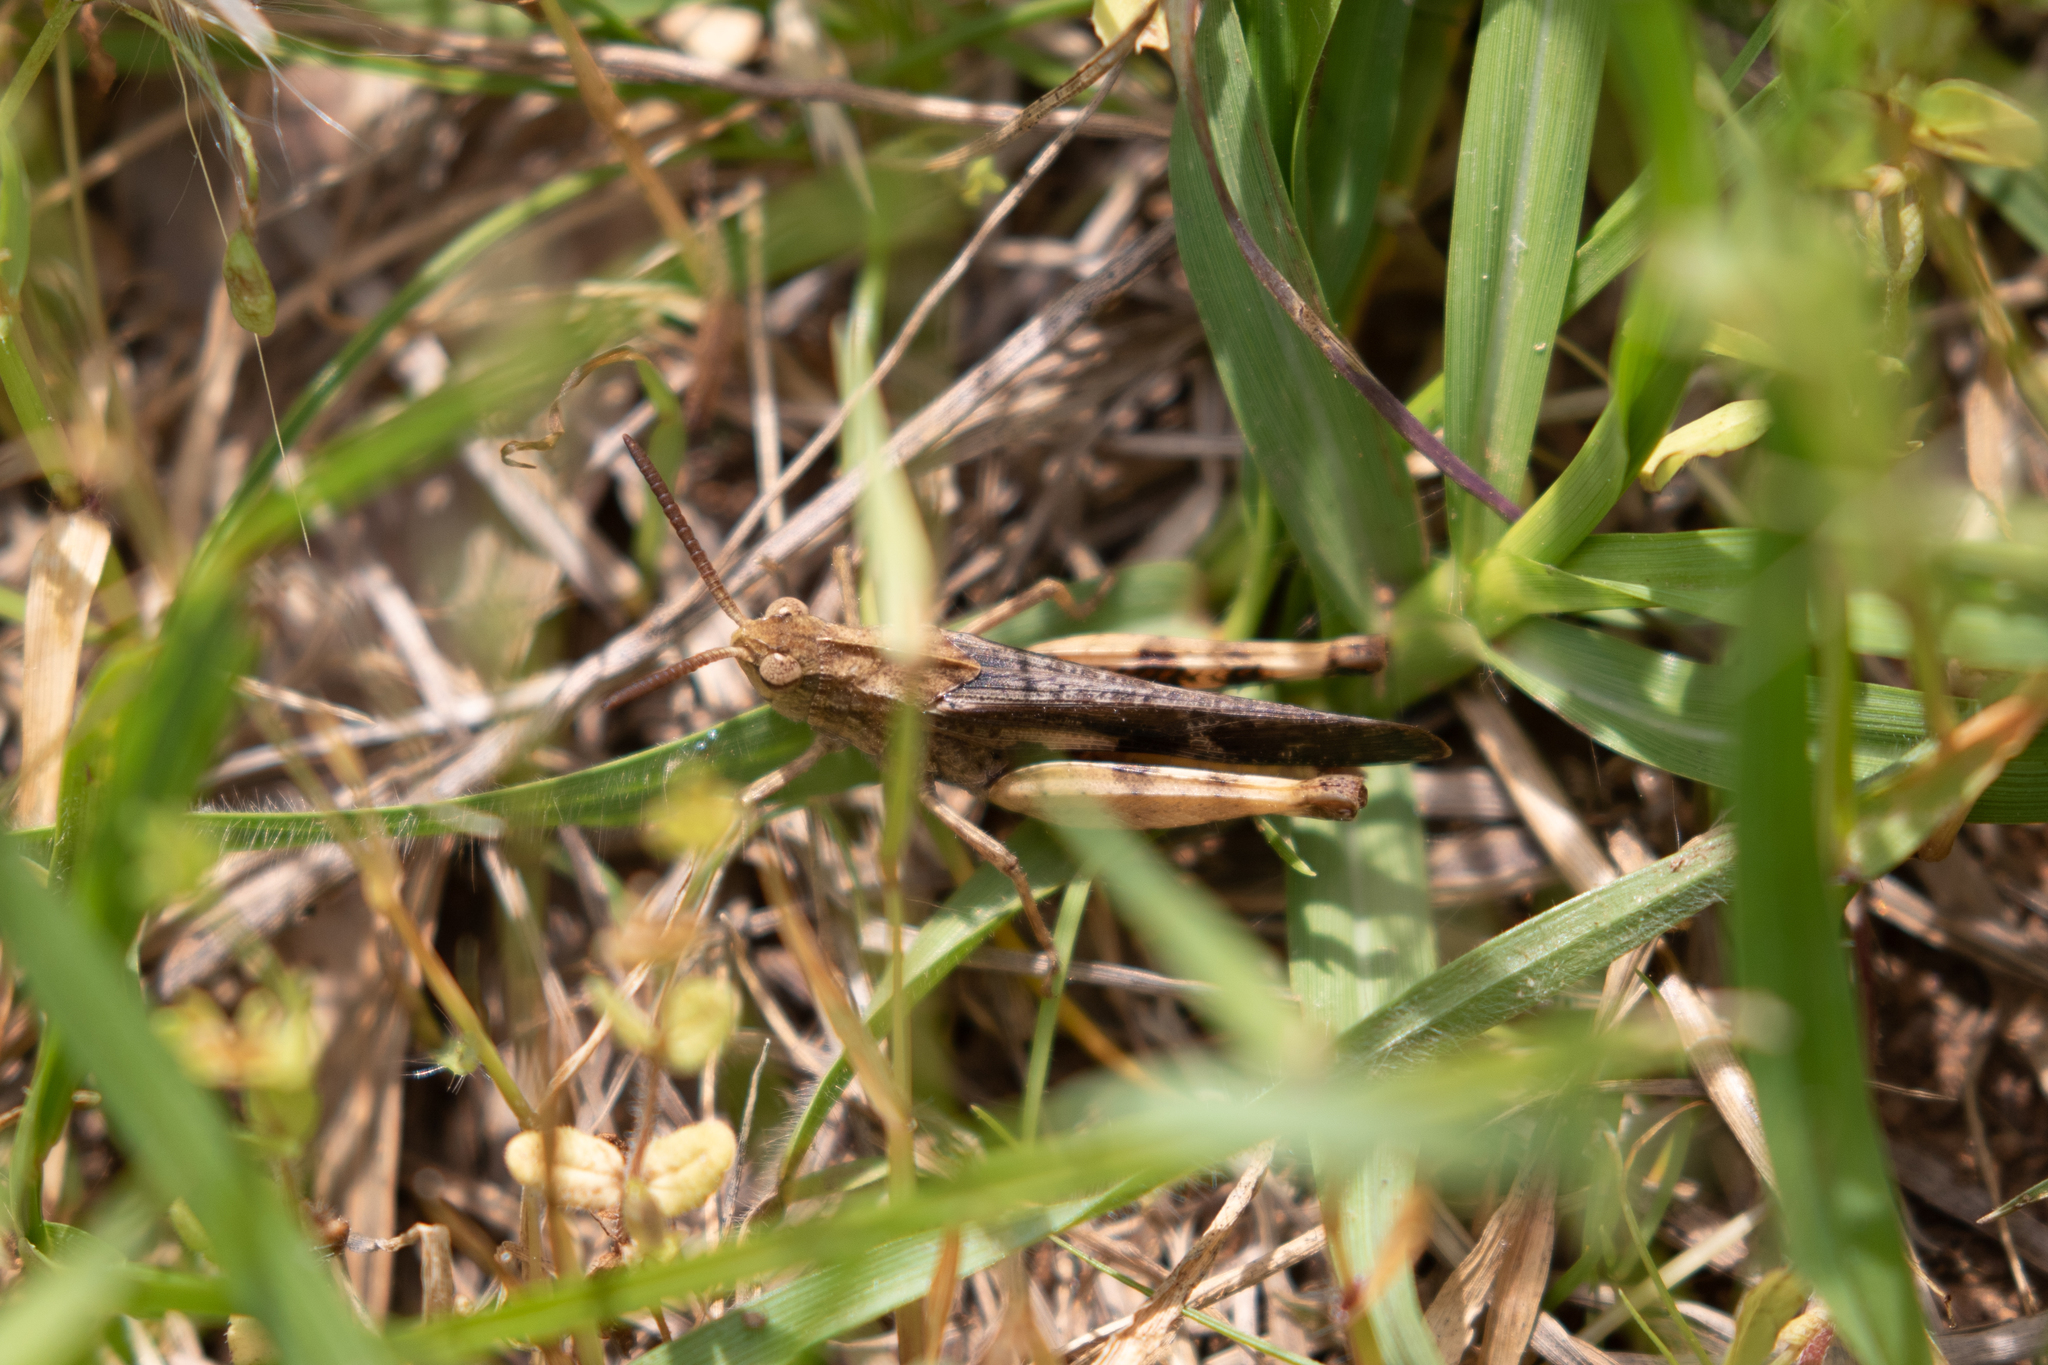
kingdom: Animalia
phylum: Arthropoda
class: Insecta
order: Orthoptera
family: Acrididae
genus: Chortophaga
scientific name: Chortophaga viridifasciata
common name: Green-striped grasshopper
